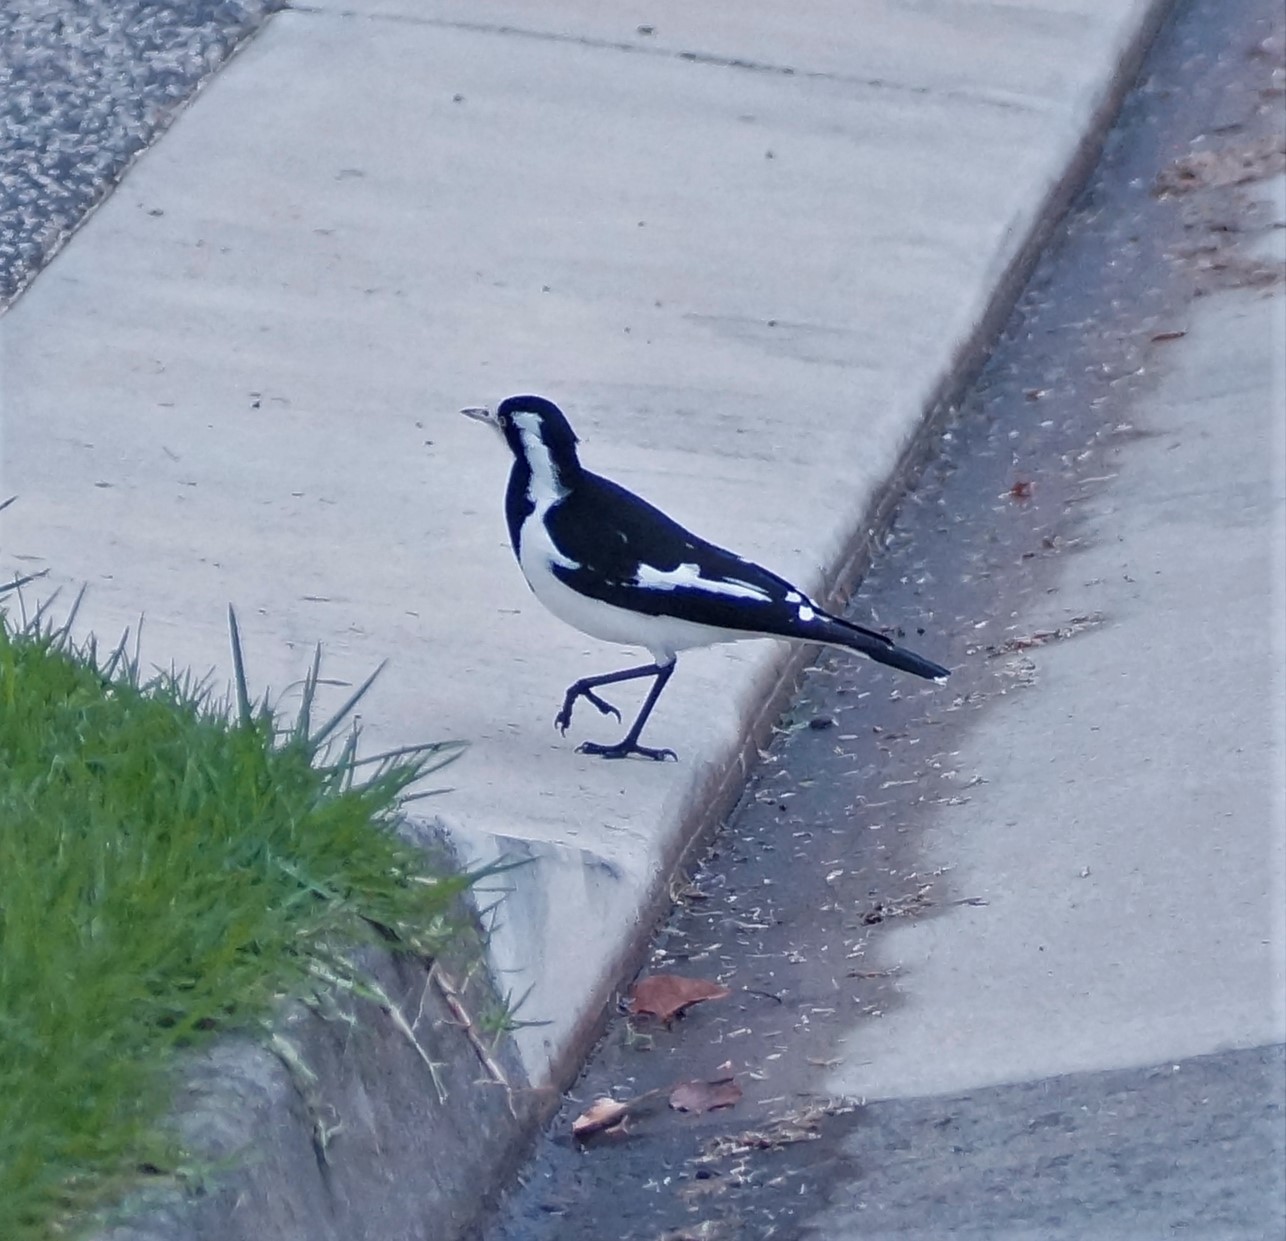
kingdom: Animalia
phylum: Chordata
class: Aves
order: Passeriformes
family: Monarchidae
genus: Grallina
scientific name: Grallina cyanoleuca
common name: Magpie-lark
